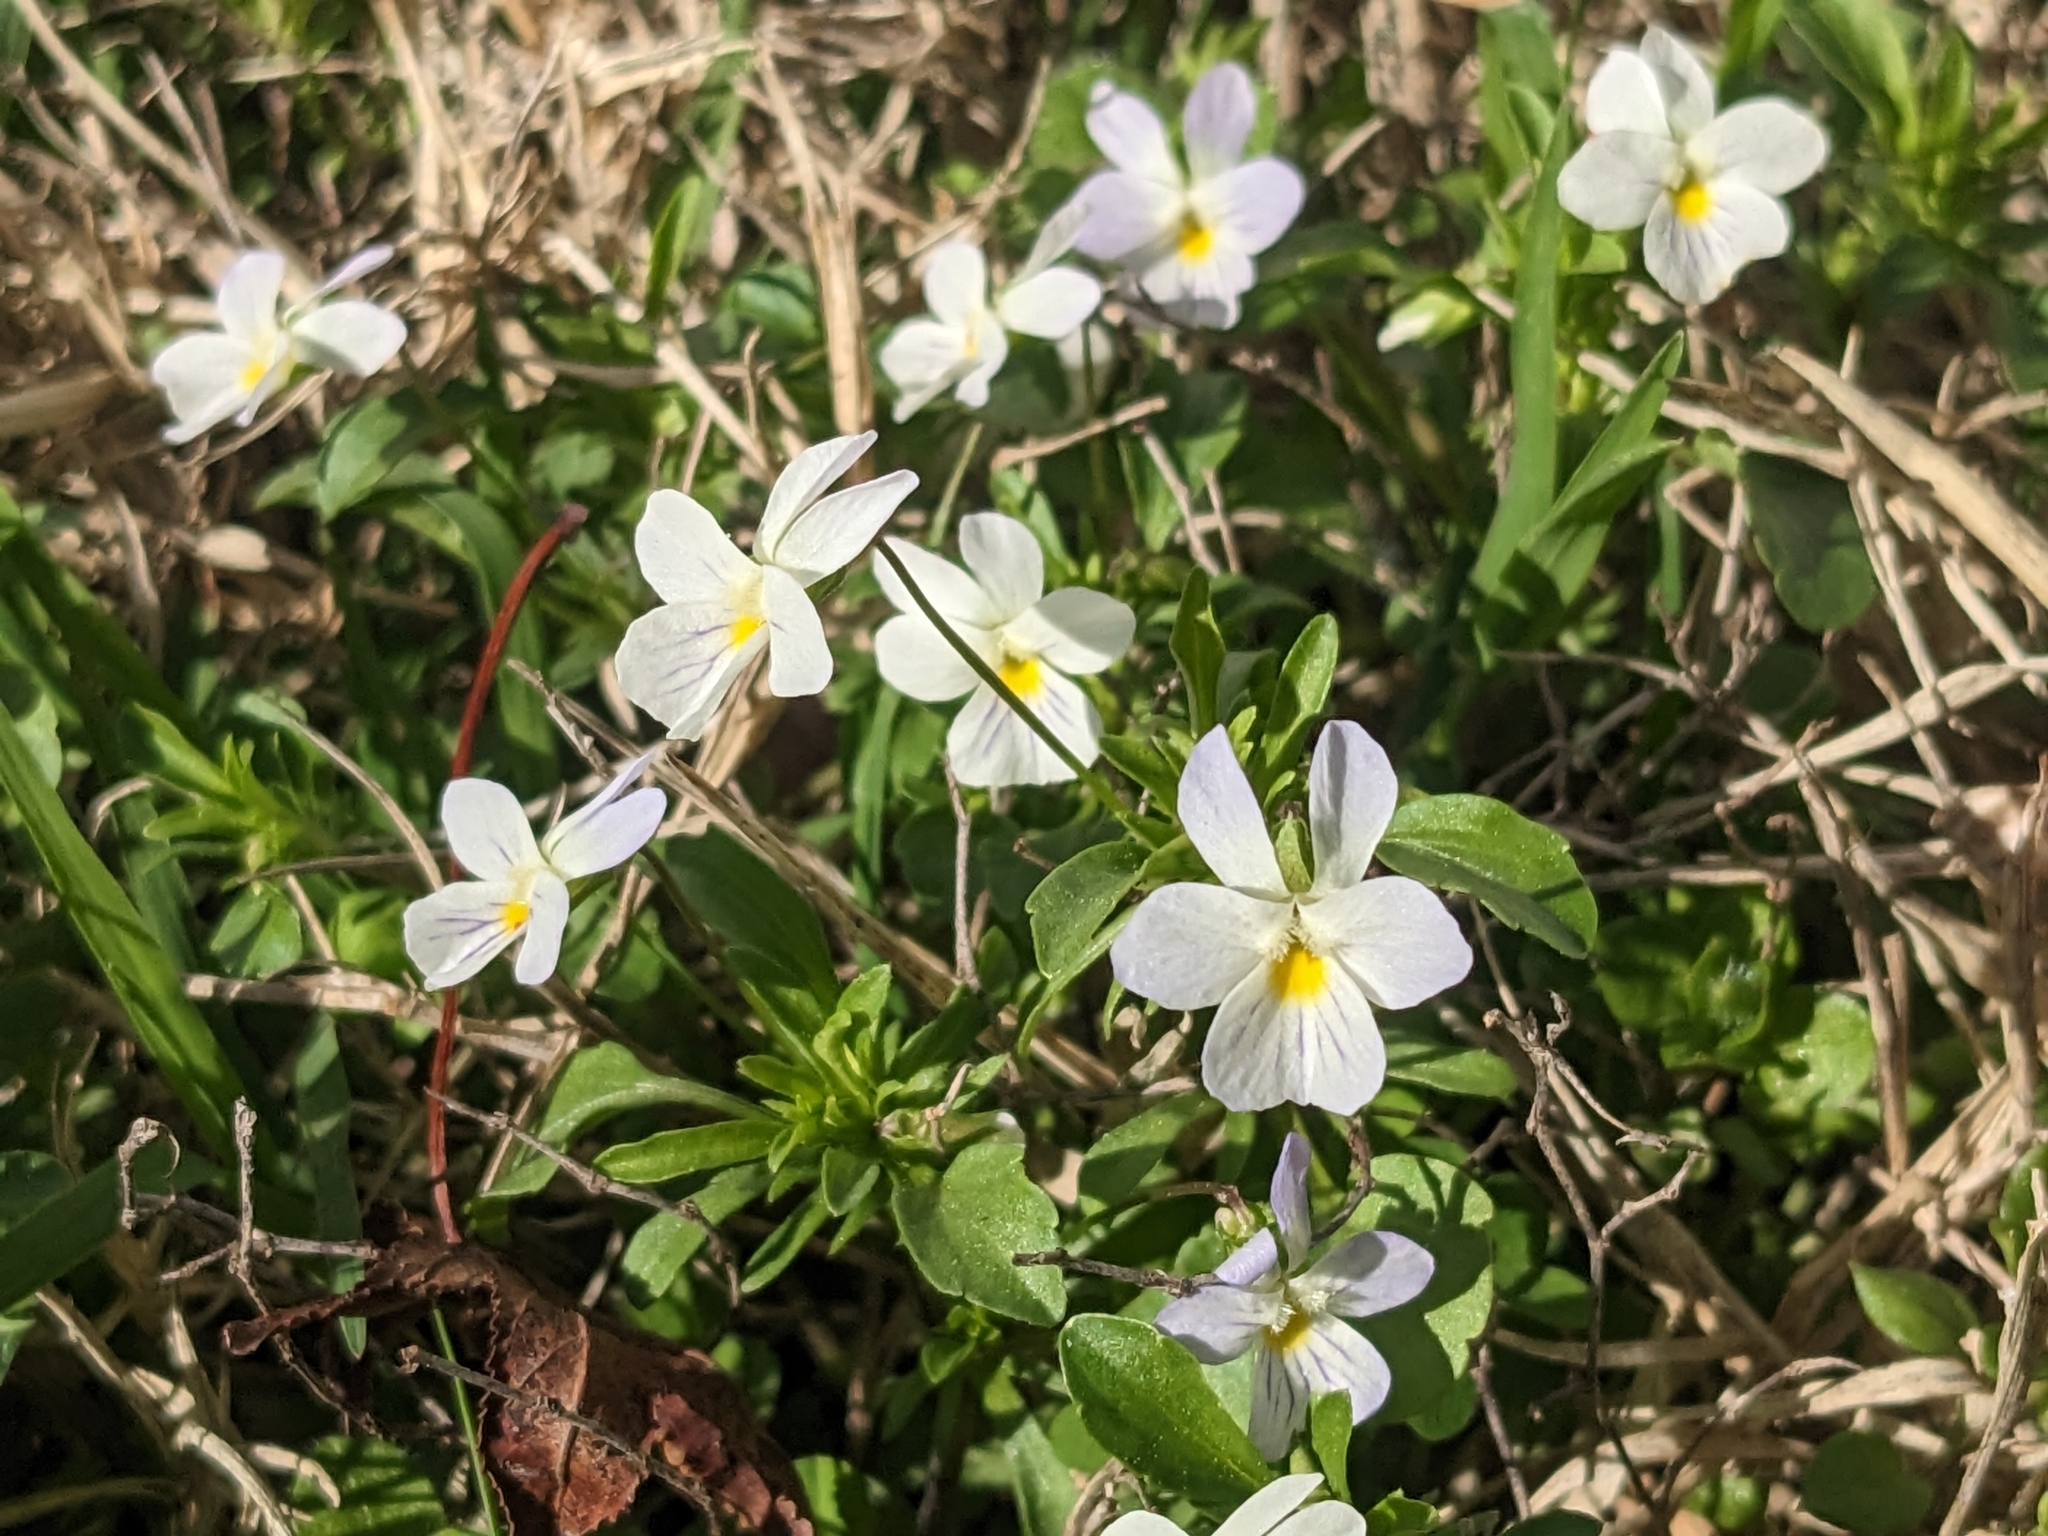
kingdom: Plantae
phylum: Tracheophyta
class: Magnoliopsida
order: Malpighiales
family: Violaceae
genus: Viola
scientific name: Viola rafinesquei
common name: American field pansy
